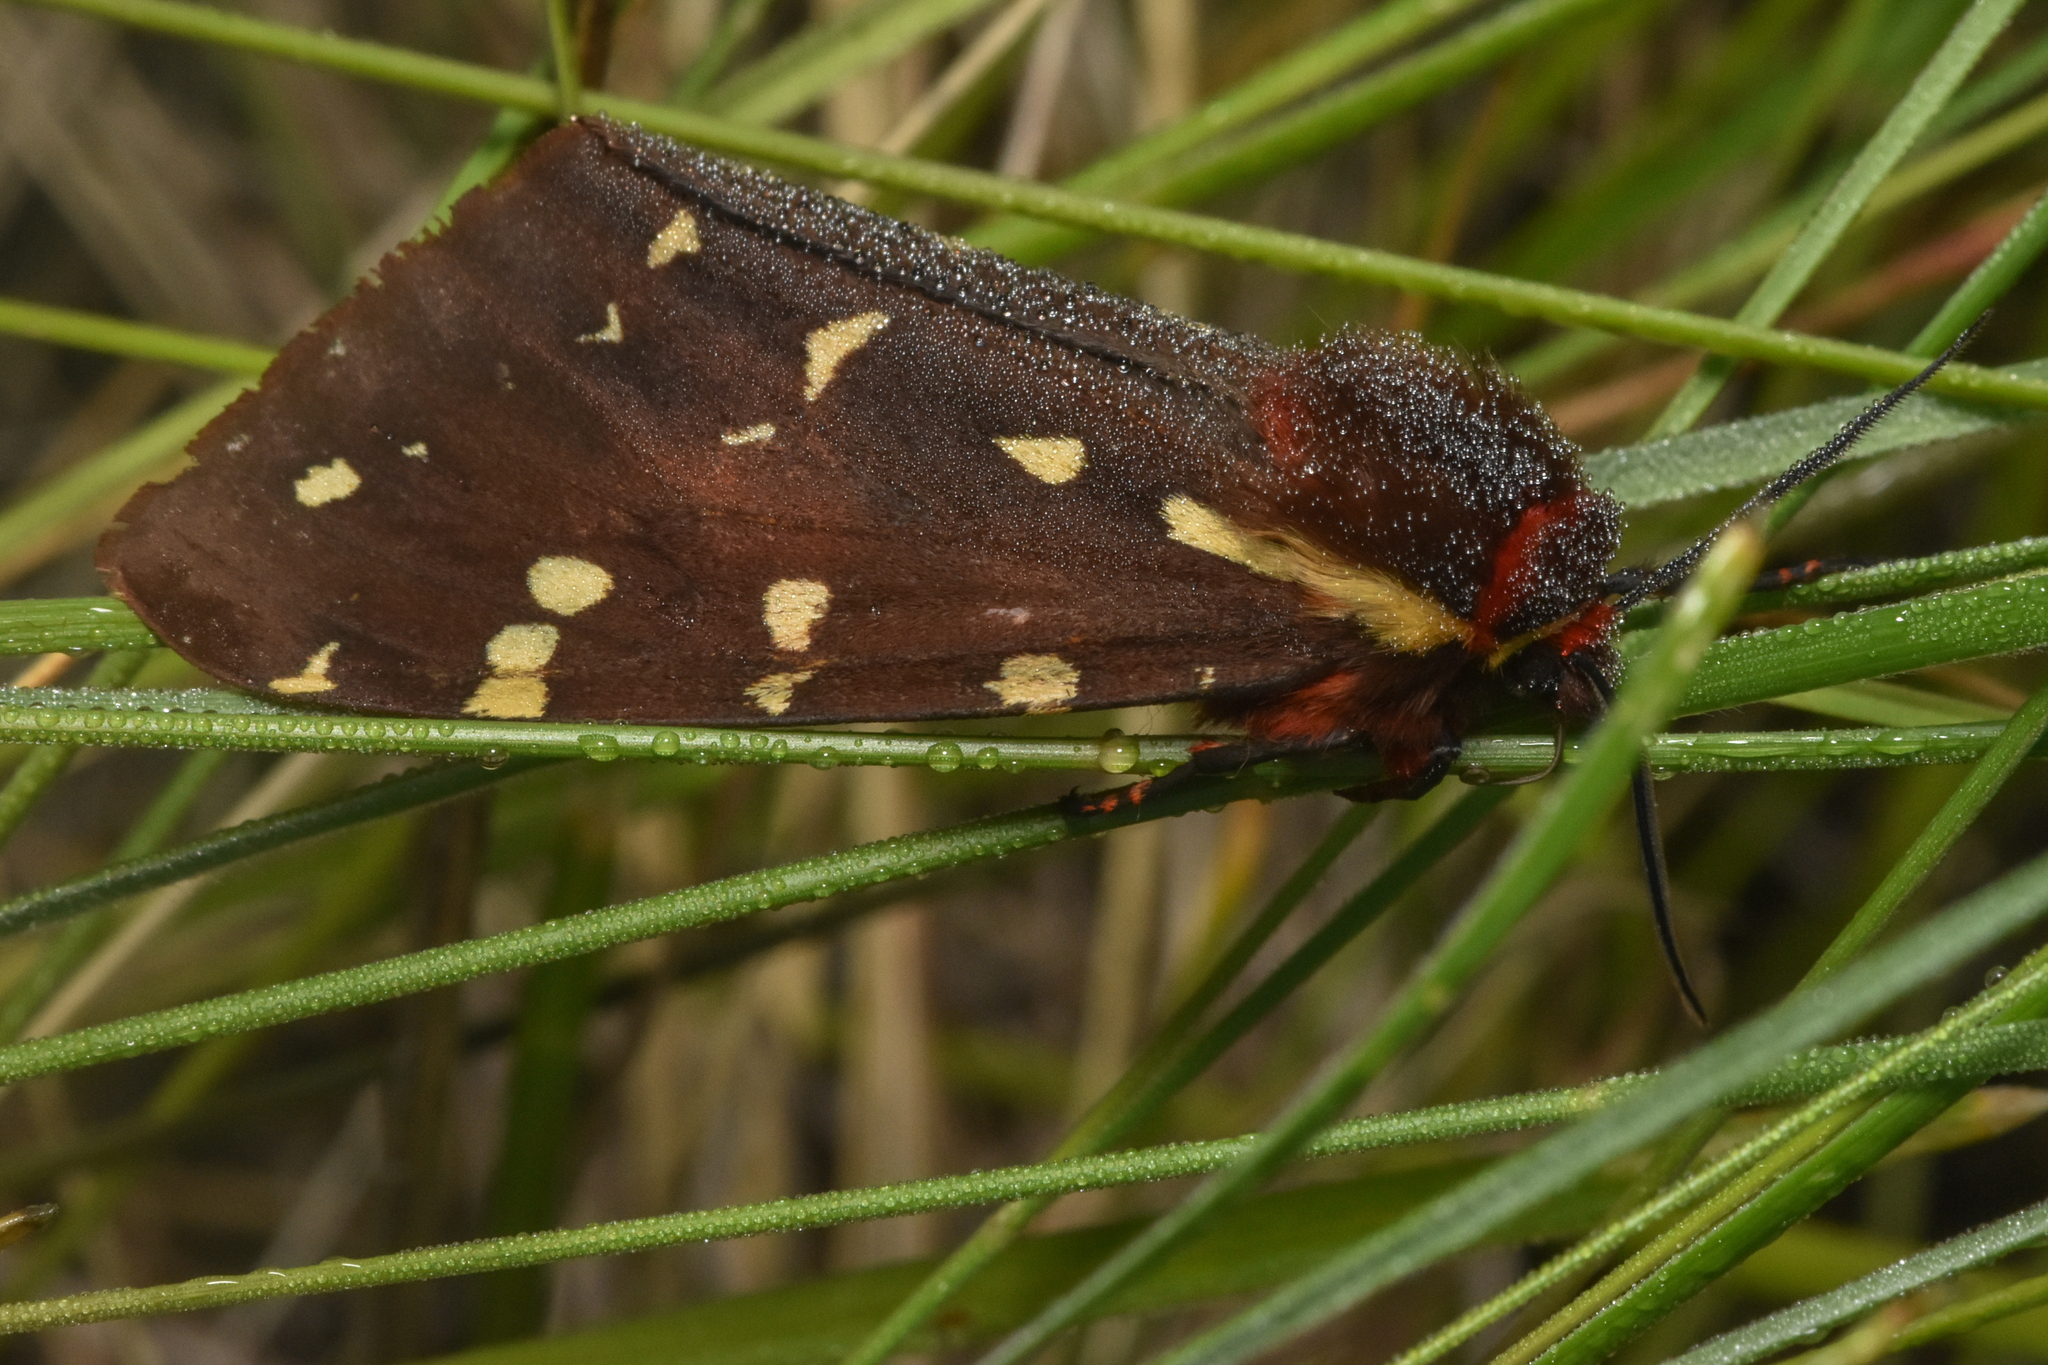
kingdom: Animalia
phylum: Arthropoda
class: Insecta
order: Lepidoptera
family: Erebidae
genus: Arctia
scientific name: Arctia parthenos
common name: St. lawrence tiger moth
